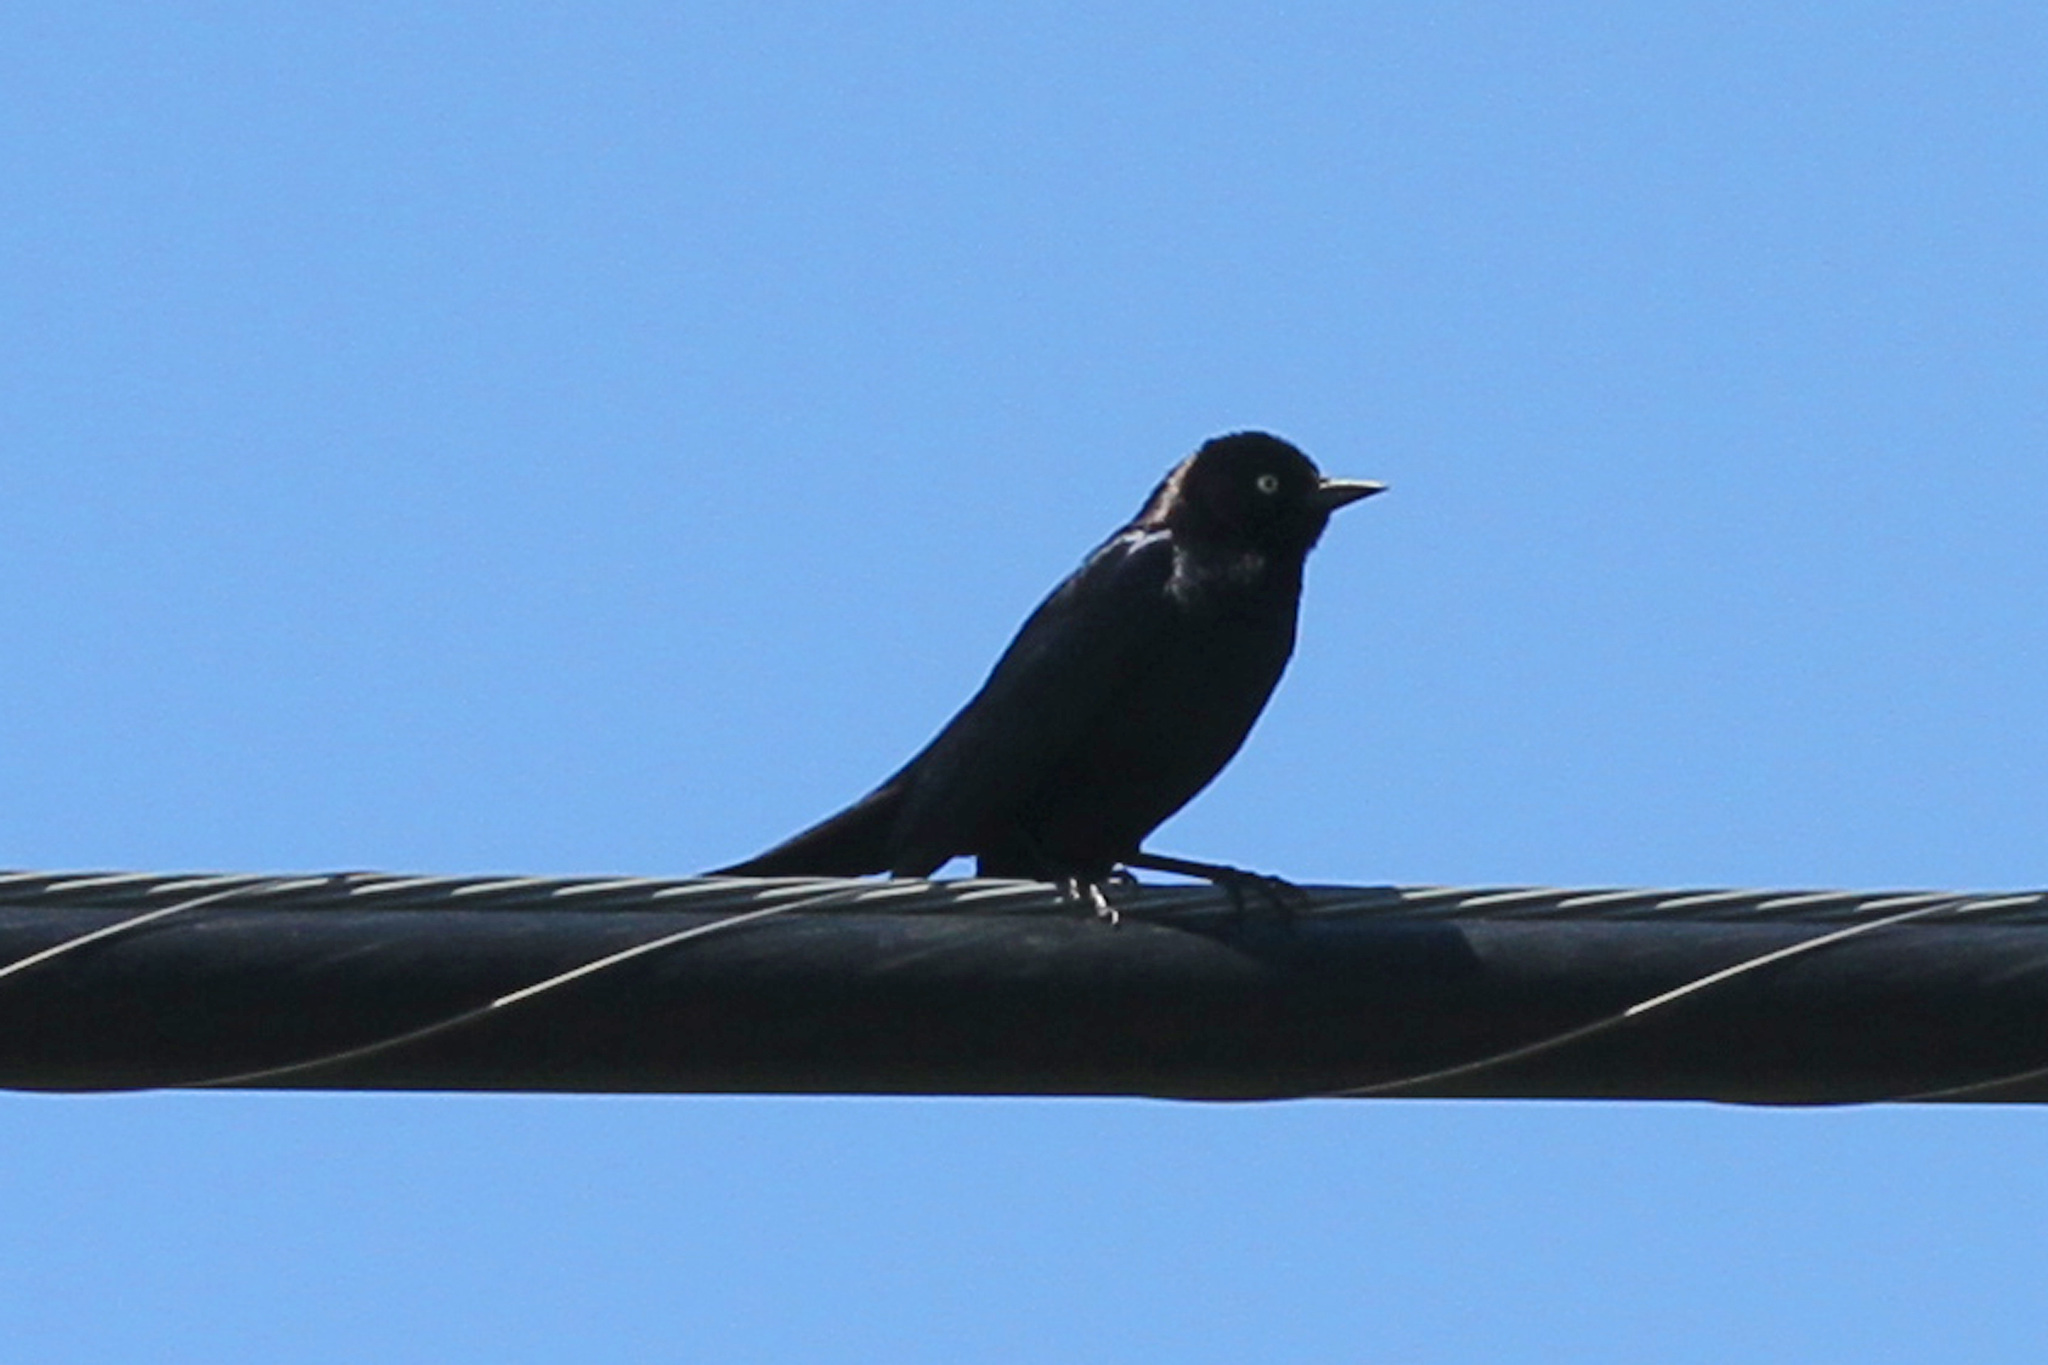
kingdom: Animalia
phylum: Chordata
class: Aves
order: Passeriformes
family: Icteridae
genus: Euphagus
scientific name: Euphagus cyanocephalus
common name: Brewer's blackbird
